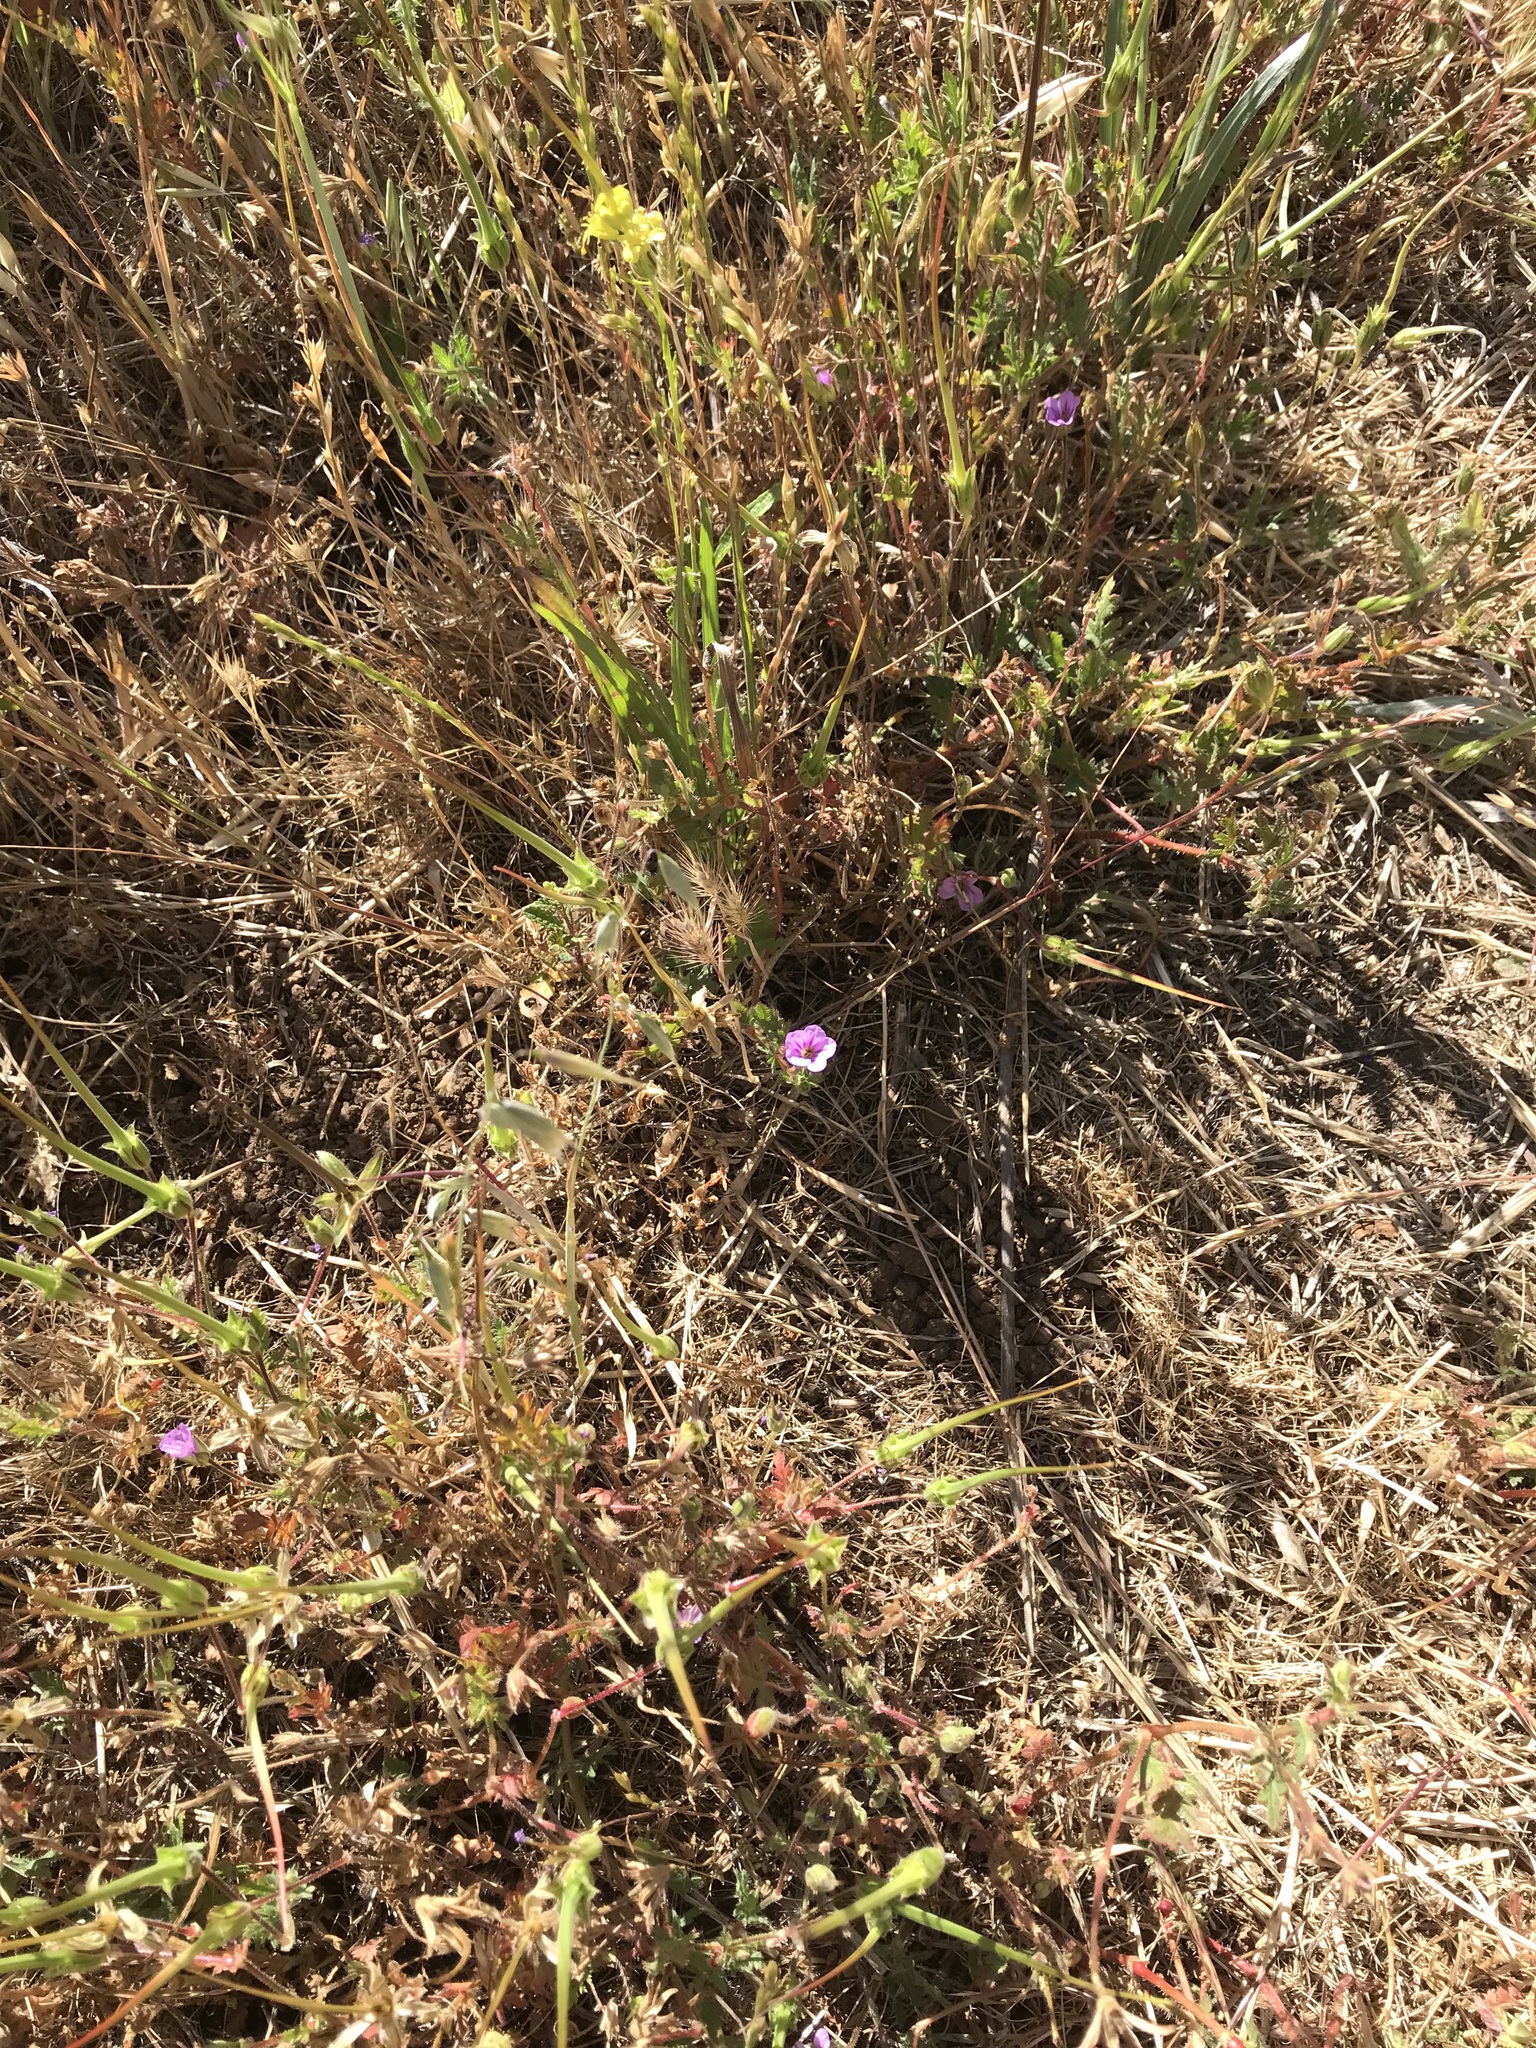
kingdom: Plantae
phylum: Tracheophyta
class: Magnoliopsida
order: Geraniales
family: Geraniaceae
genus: Erodium
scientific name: Erodium botrys
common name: Mediterranean stork's-bill
